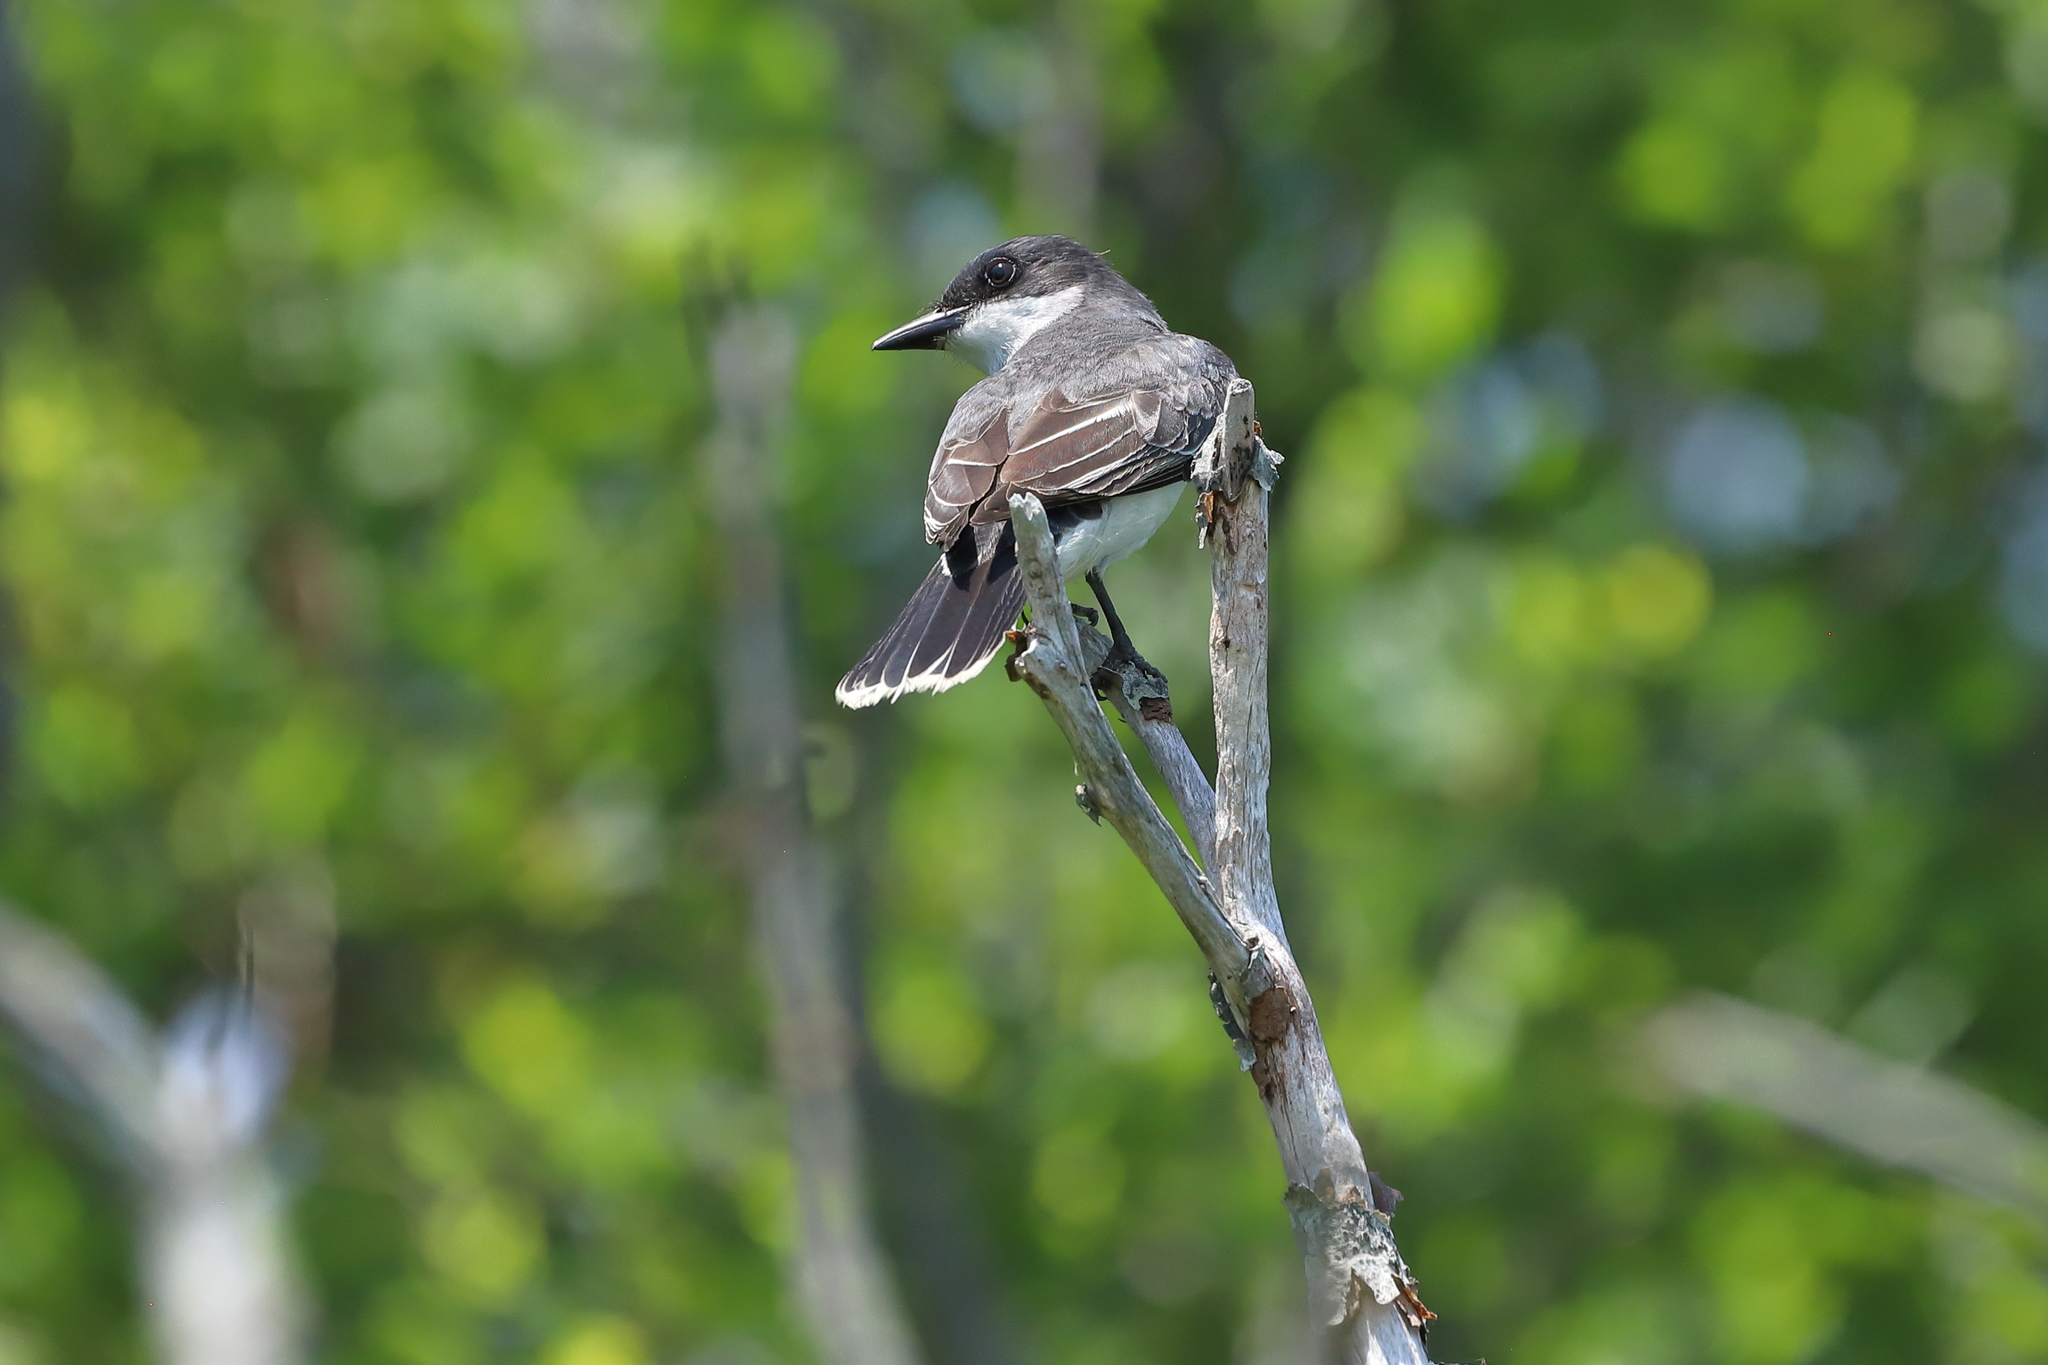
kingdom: Animalia
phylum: Chordata
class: Aves
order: Passeriformes
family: Tyrannidae
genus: Tyrannus
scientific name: Tyrannus tyrannus
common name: Eastern kingbird
